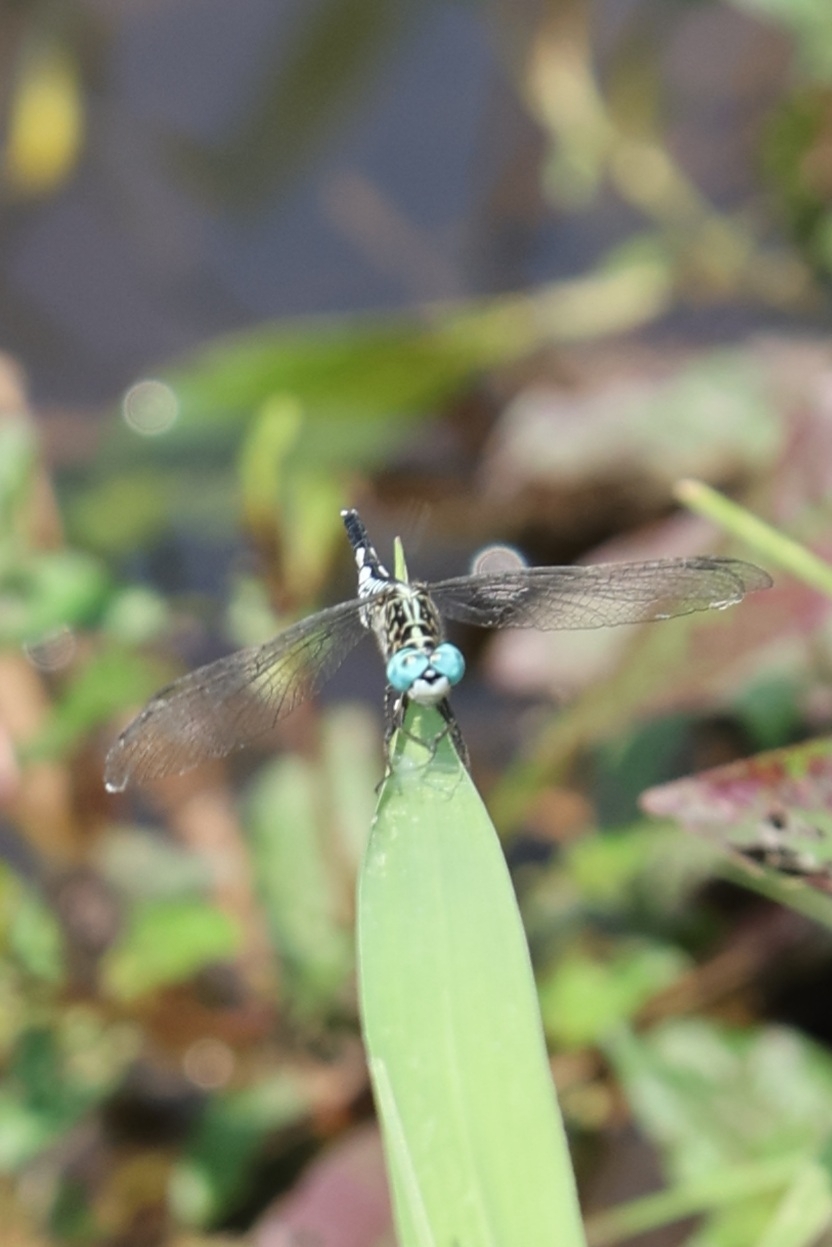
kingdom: Animalia
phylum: Arthropoda
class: Insecta
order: Odonata
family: Libellulidae
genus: Acisoma
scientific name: Acisoma panorpoides
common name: Asian pintail
